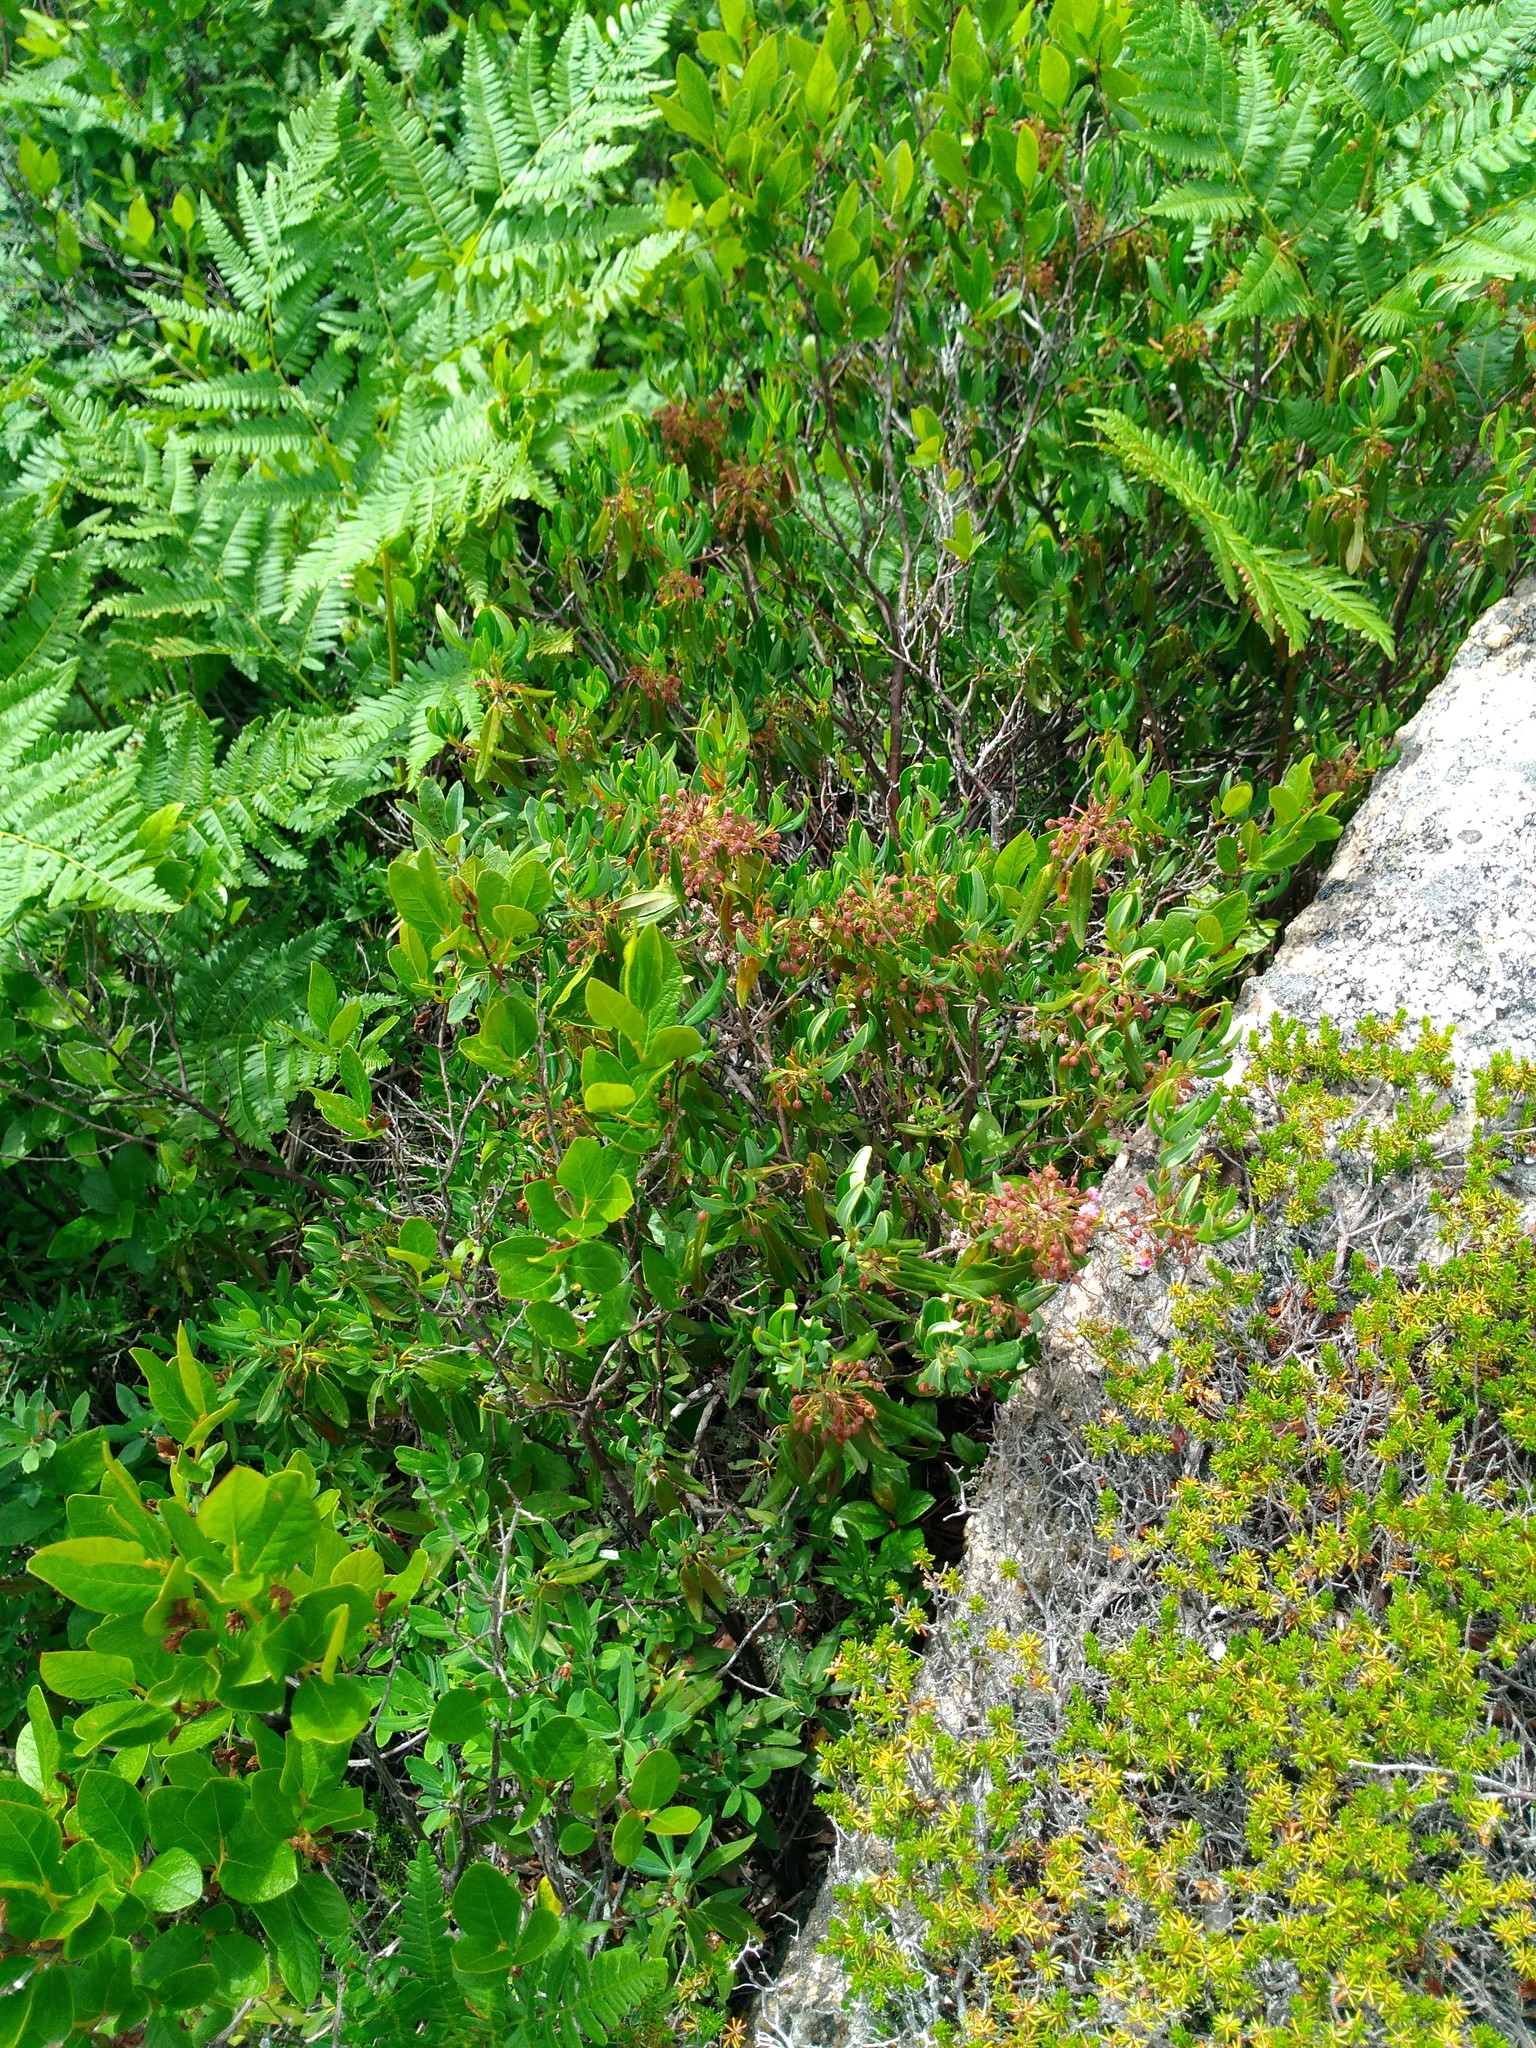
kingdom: Plantae
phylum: Tracheophyta
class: Magnoliopsida
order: Ericales
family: Ericaceae
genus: Kalmia
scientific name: Kalmia angustifolia
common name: Sheep-laurel
